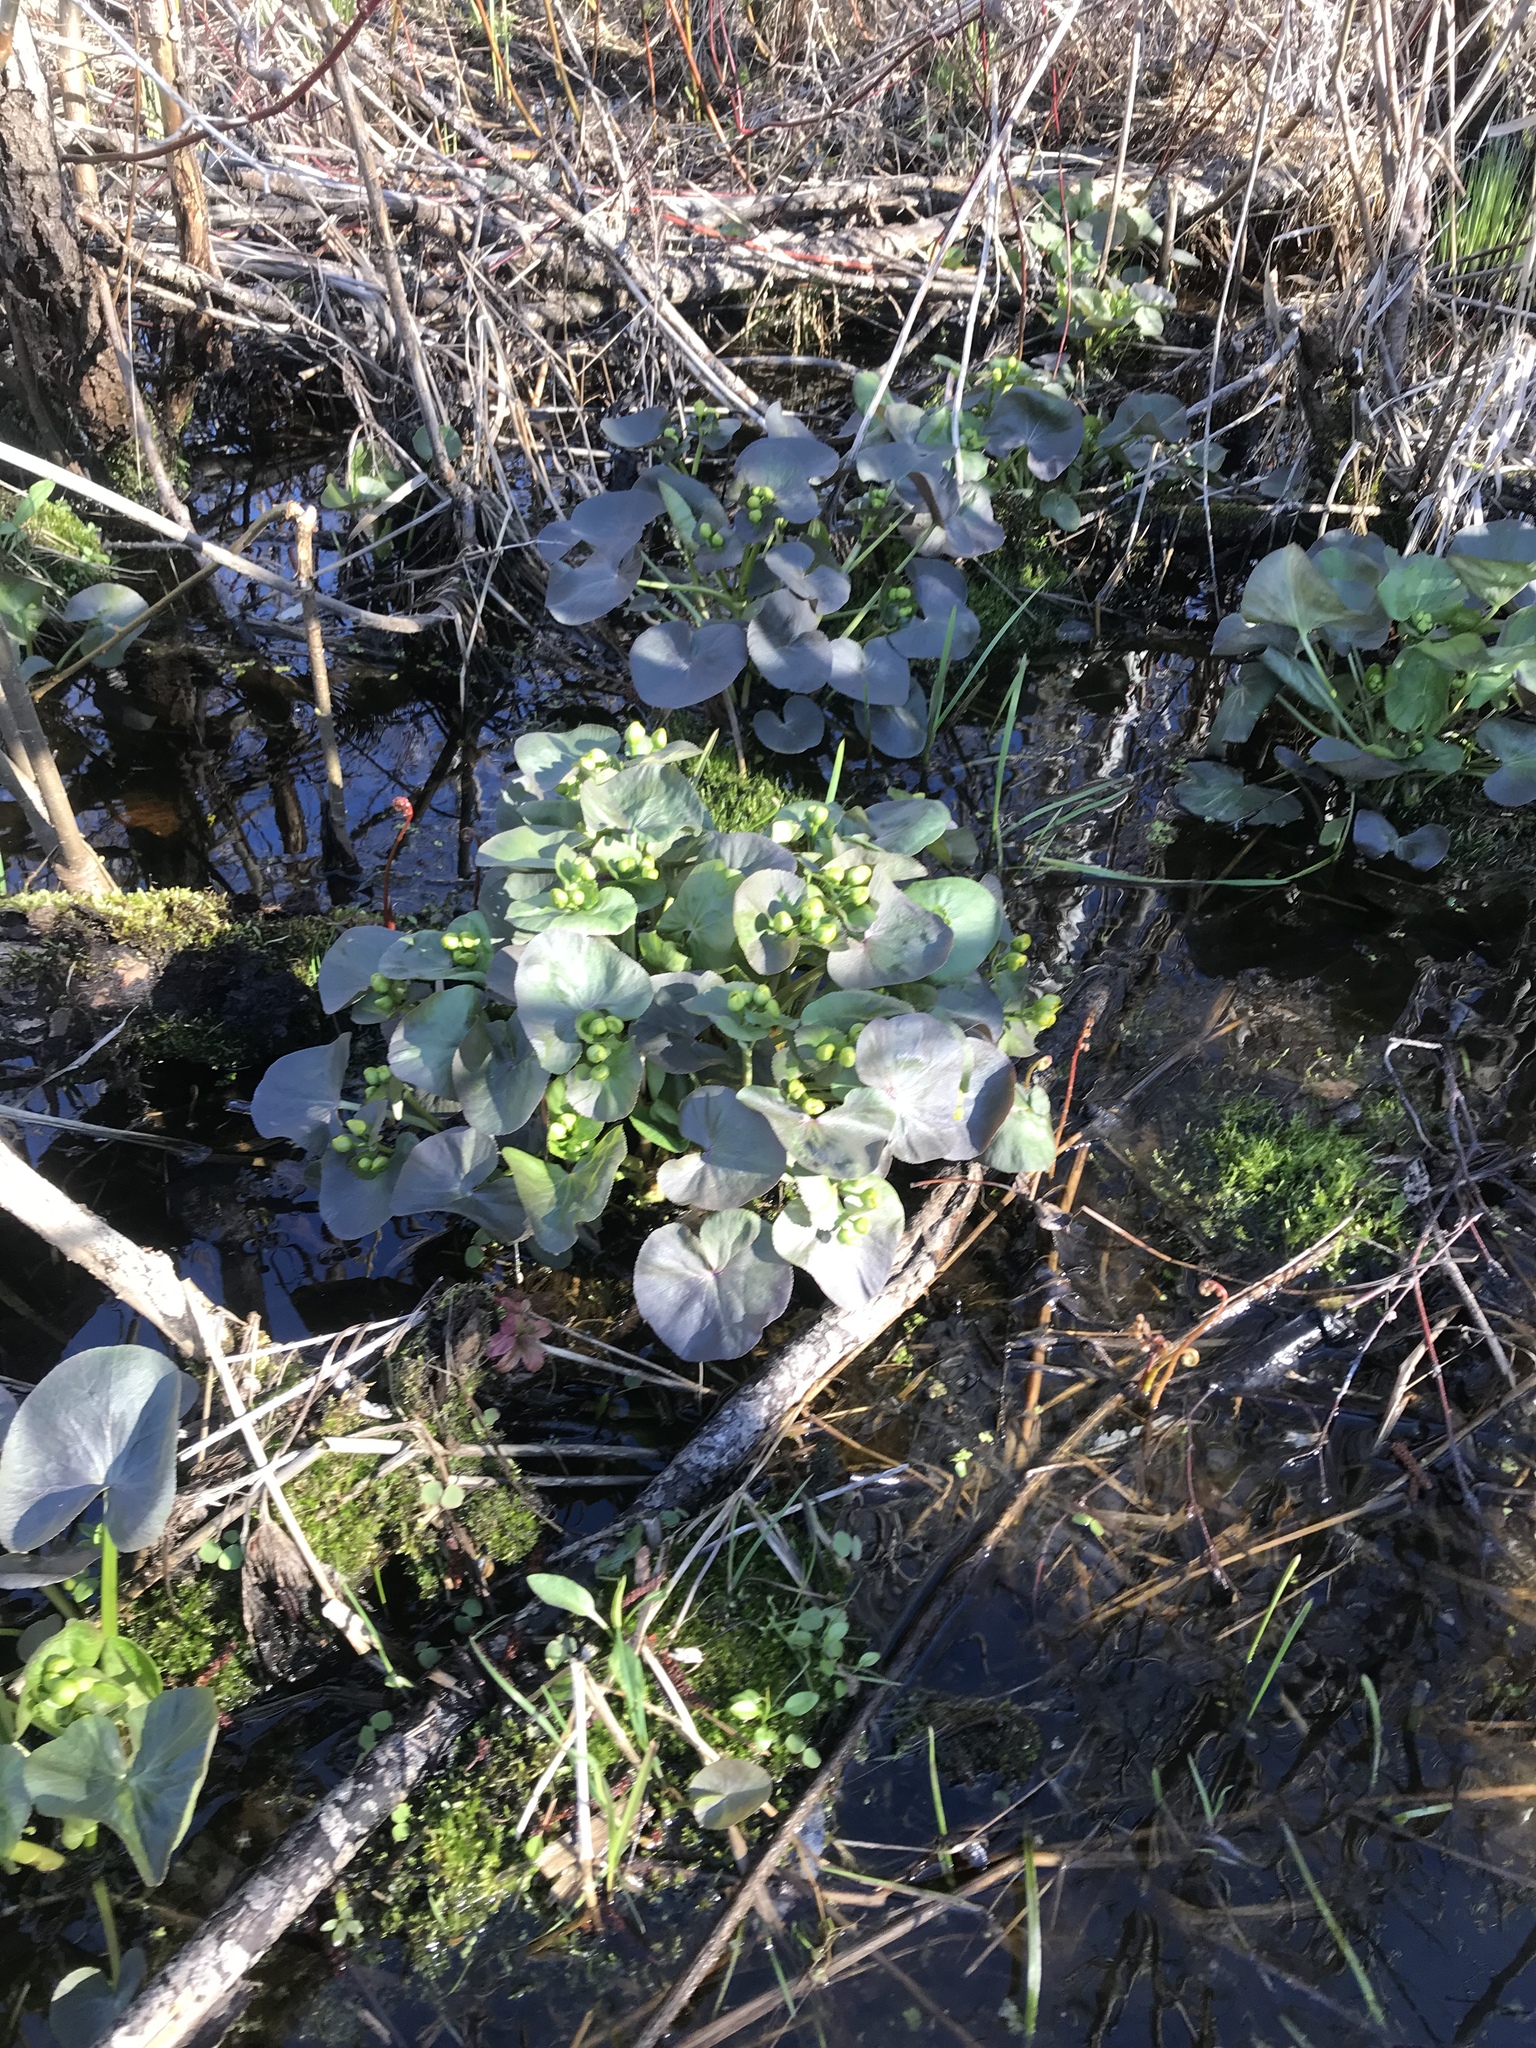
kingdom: Plantae
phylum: Tracheophyta
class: Magnoliopsida
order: Ranunculales
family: Ranunculaceae
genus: Caltha
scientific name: Caltha palustris
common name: Marsh marigold
